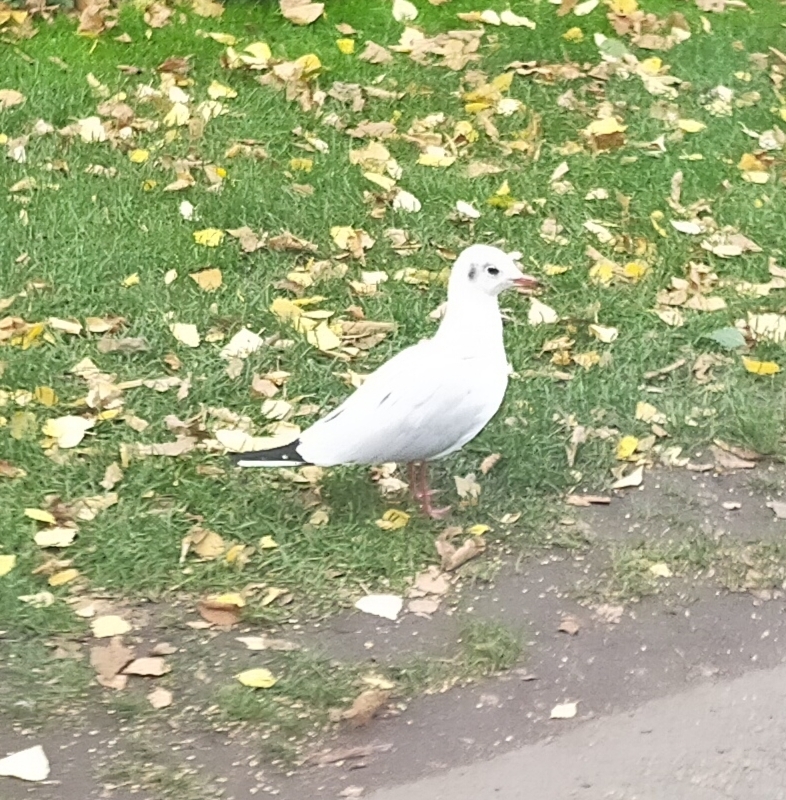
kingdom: Animalia
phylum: Chordata
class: Aves
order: Charadriiformes
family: Laridae
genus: Chroicocephalus
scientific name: Chroicocephalus ridibundus
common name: Black-headed gull
